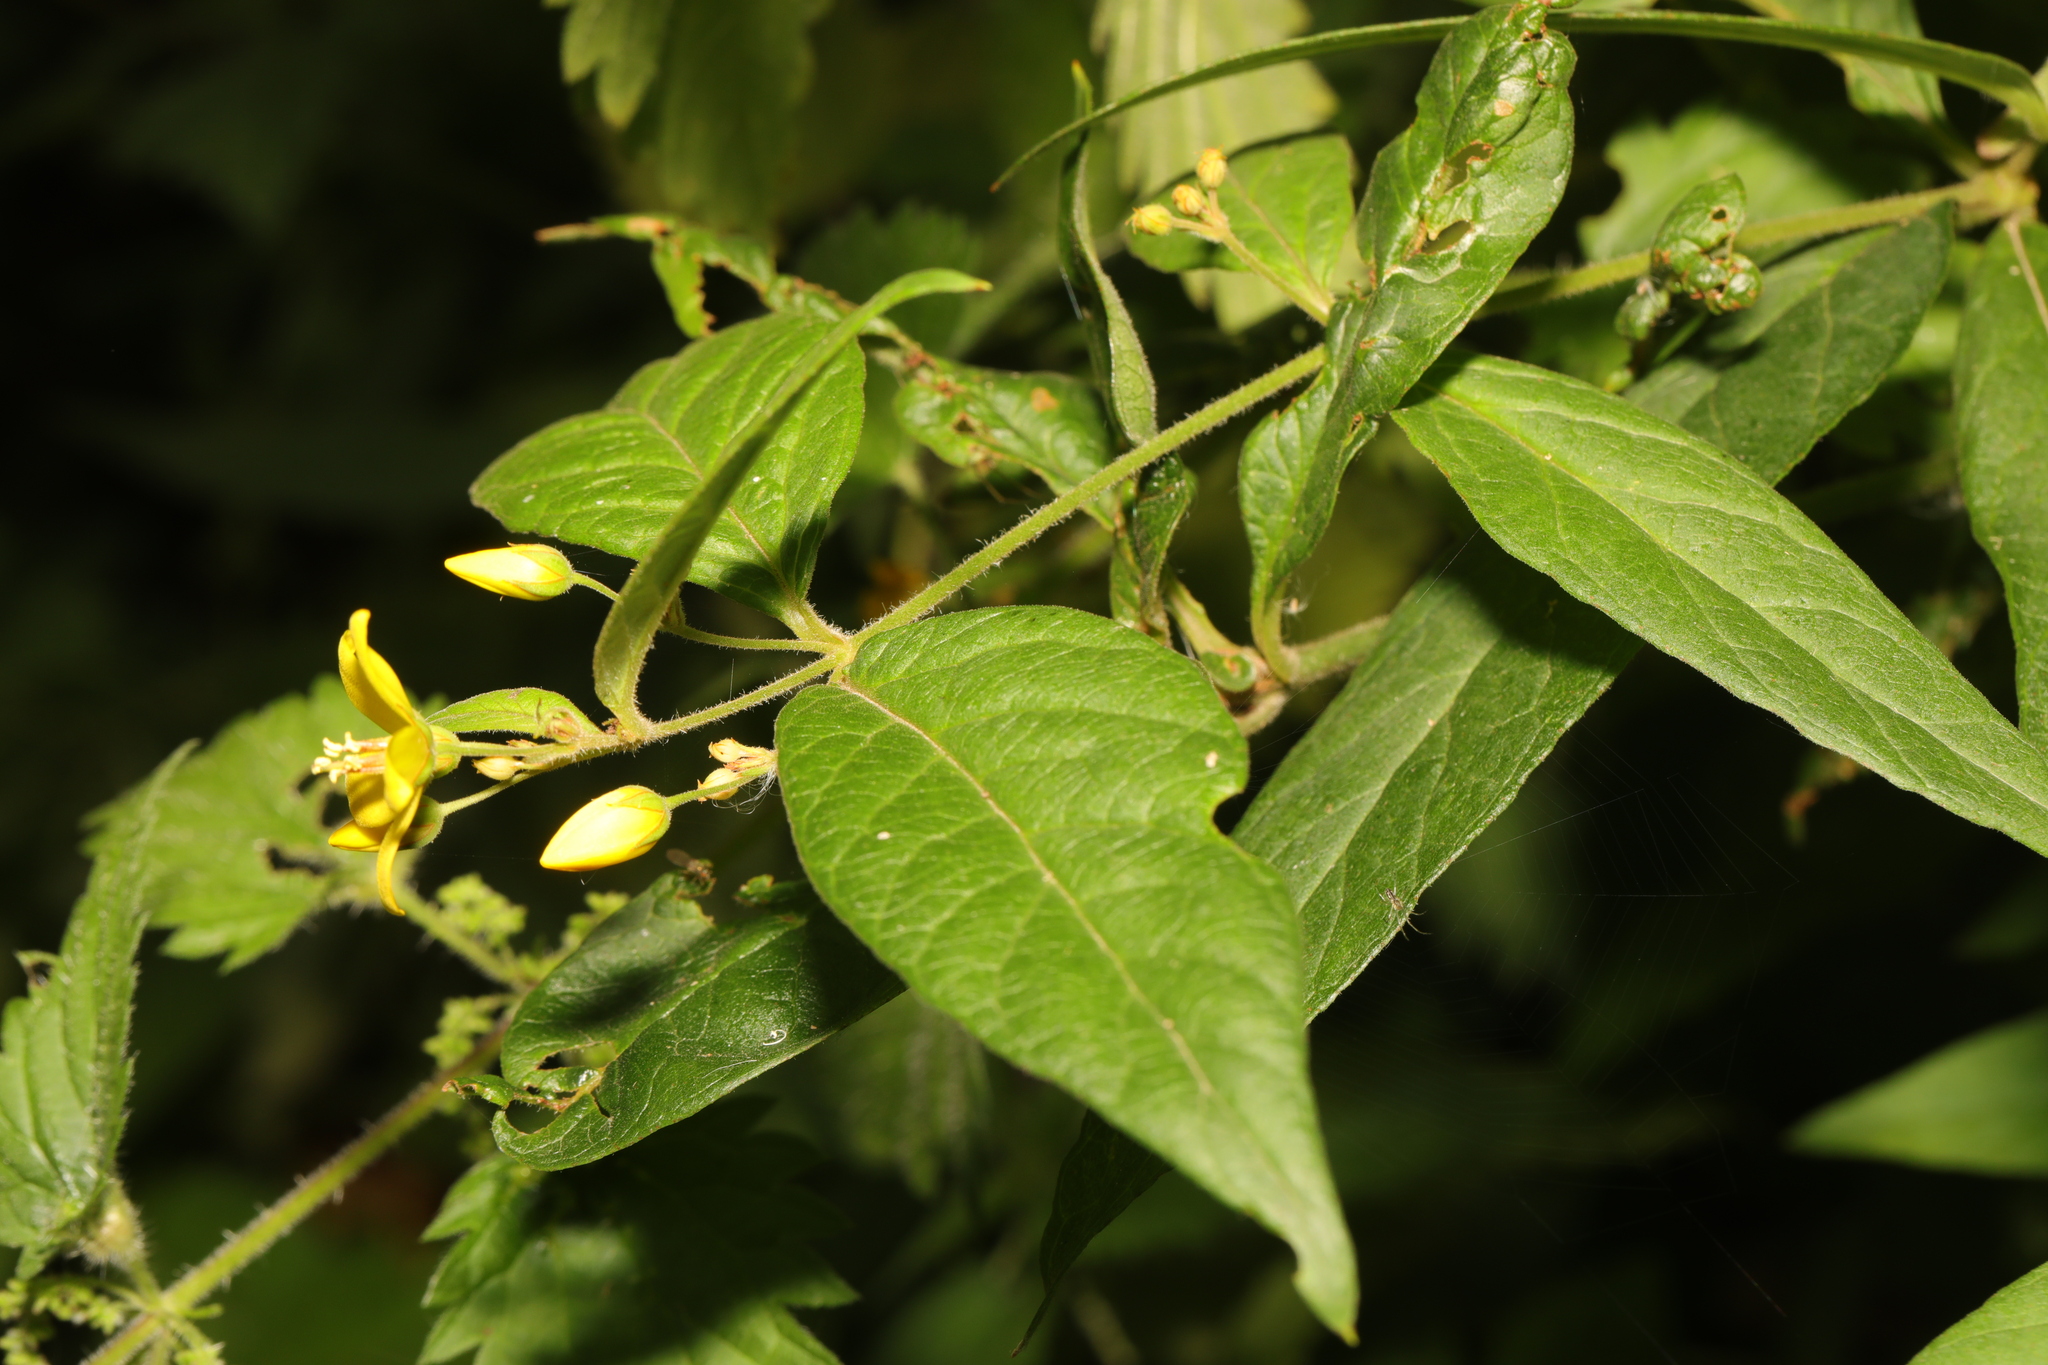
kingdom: Plantae
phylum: Tracheophyta
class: Magnoliopsida
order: Ericales
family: Primulaceae
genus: Lysimachia
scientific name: Lysimachia vulgaris
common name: Yellow loosestrife
